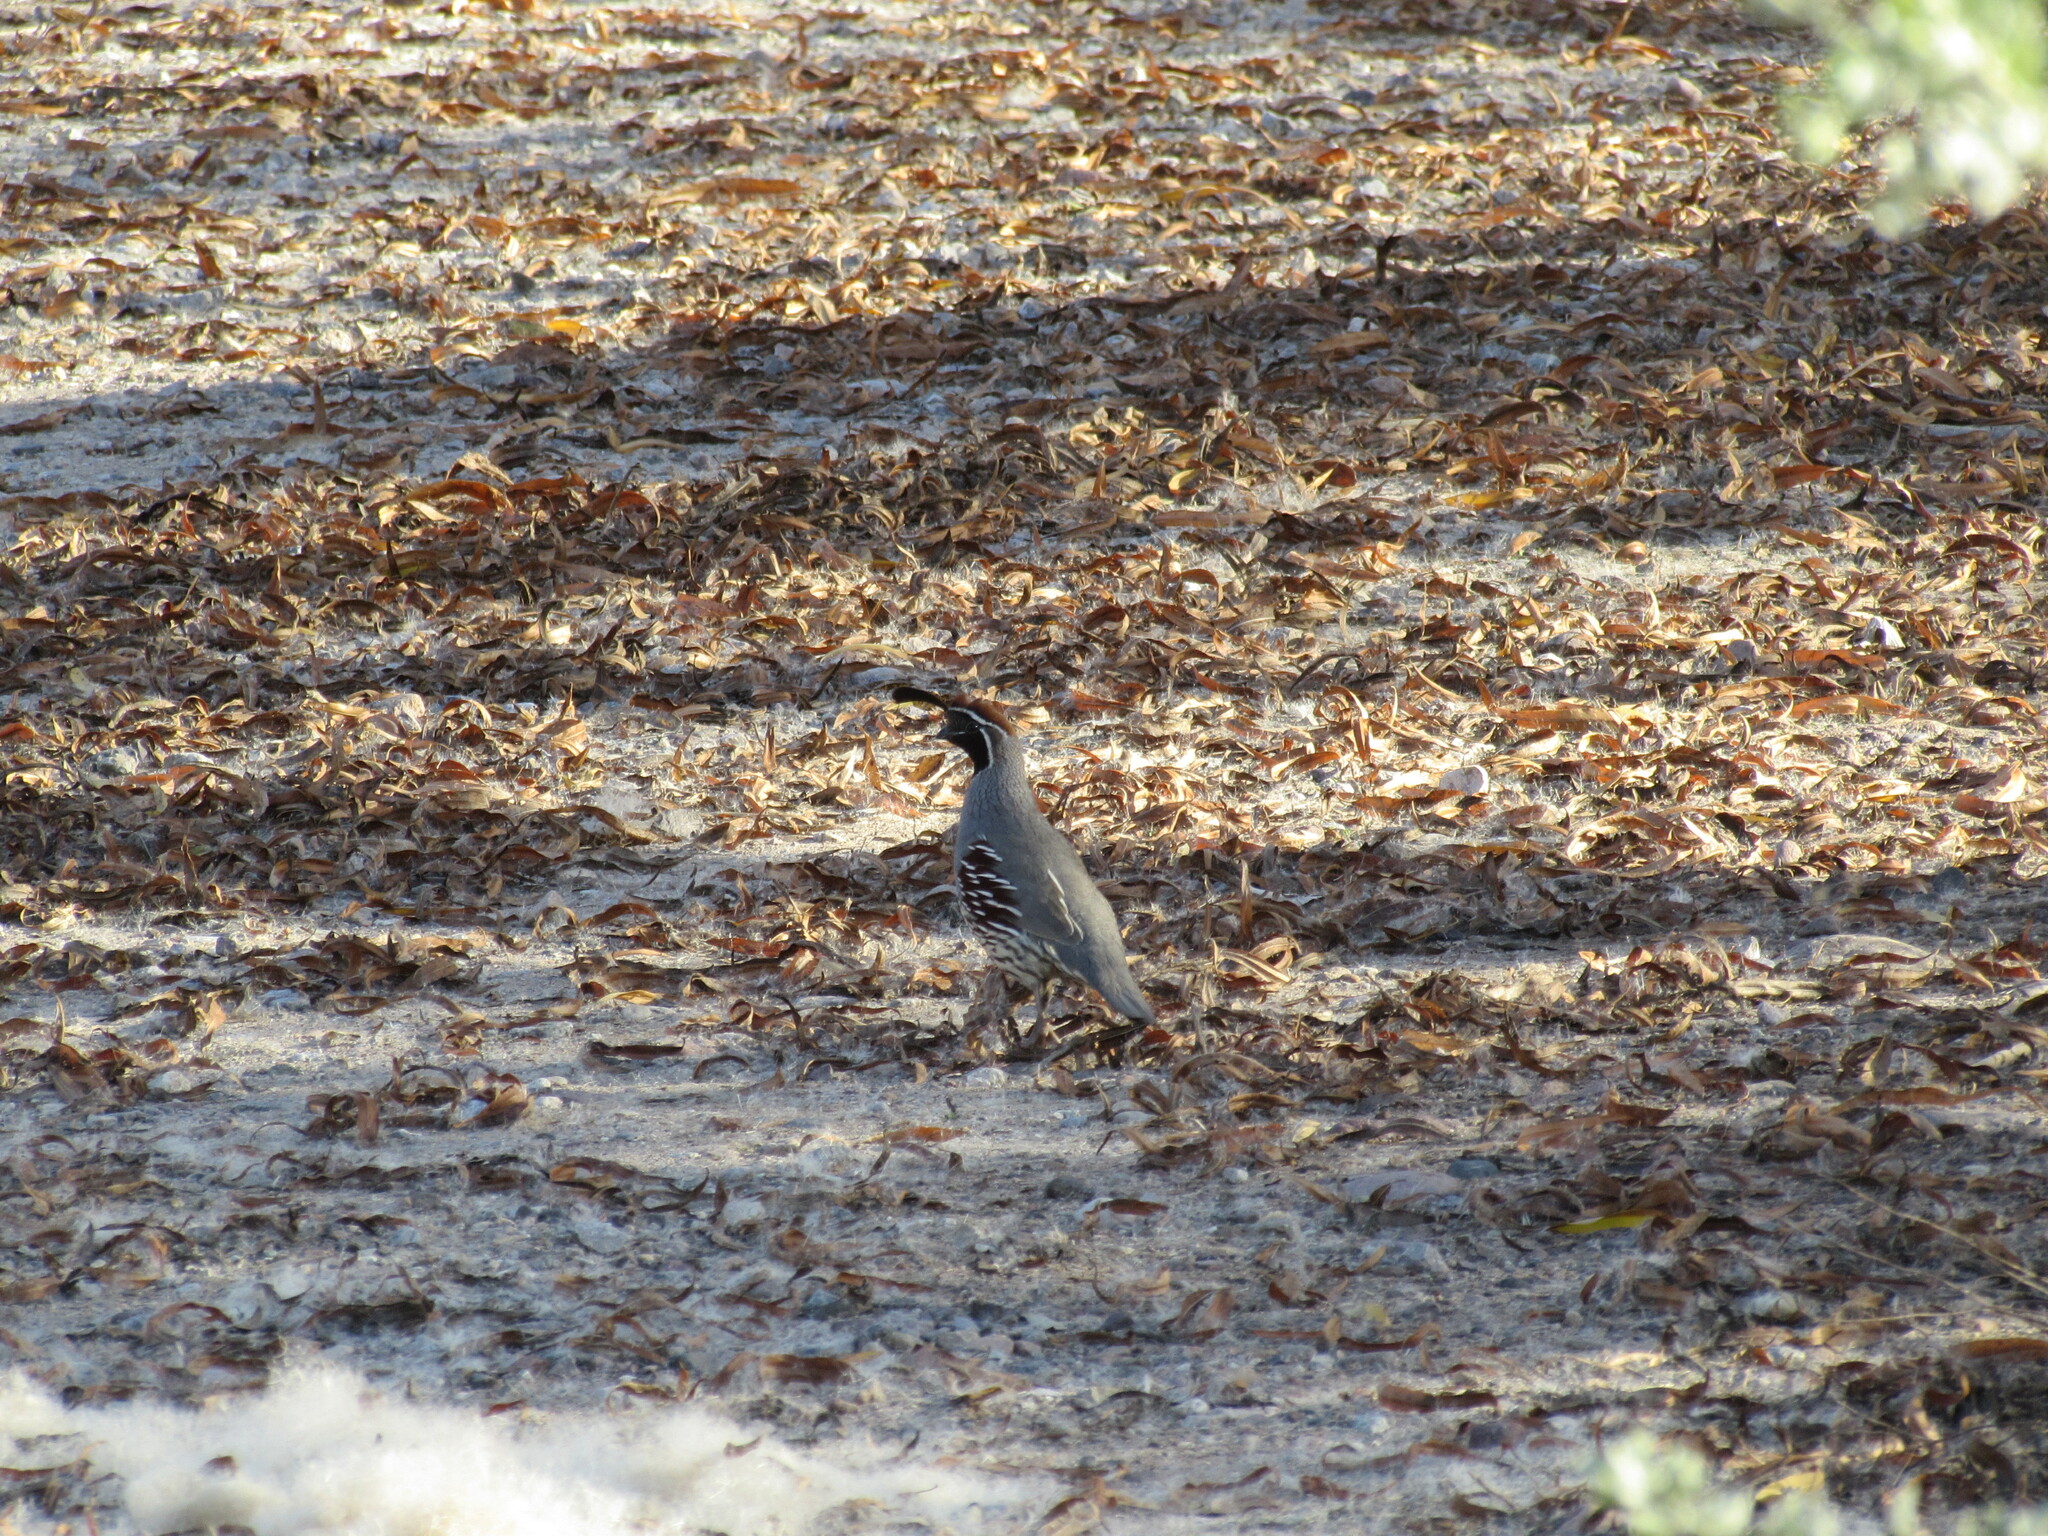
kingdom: Animalia
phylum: Chordata
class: Aves
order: Galliformes
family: Odontophoridae
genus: Callipepla
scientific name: Callipepla gambelii
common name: Gambel's quail
